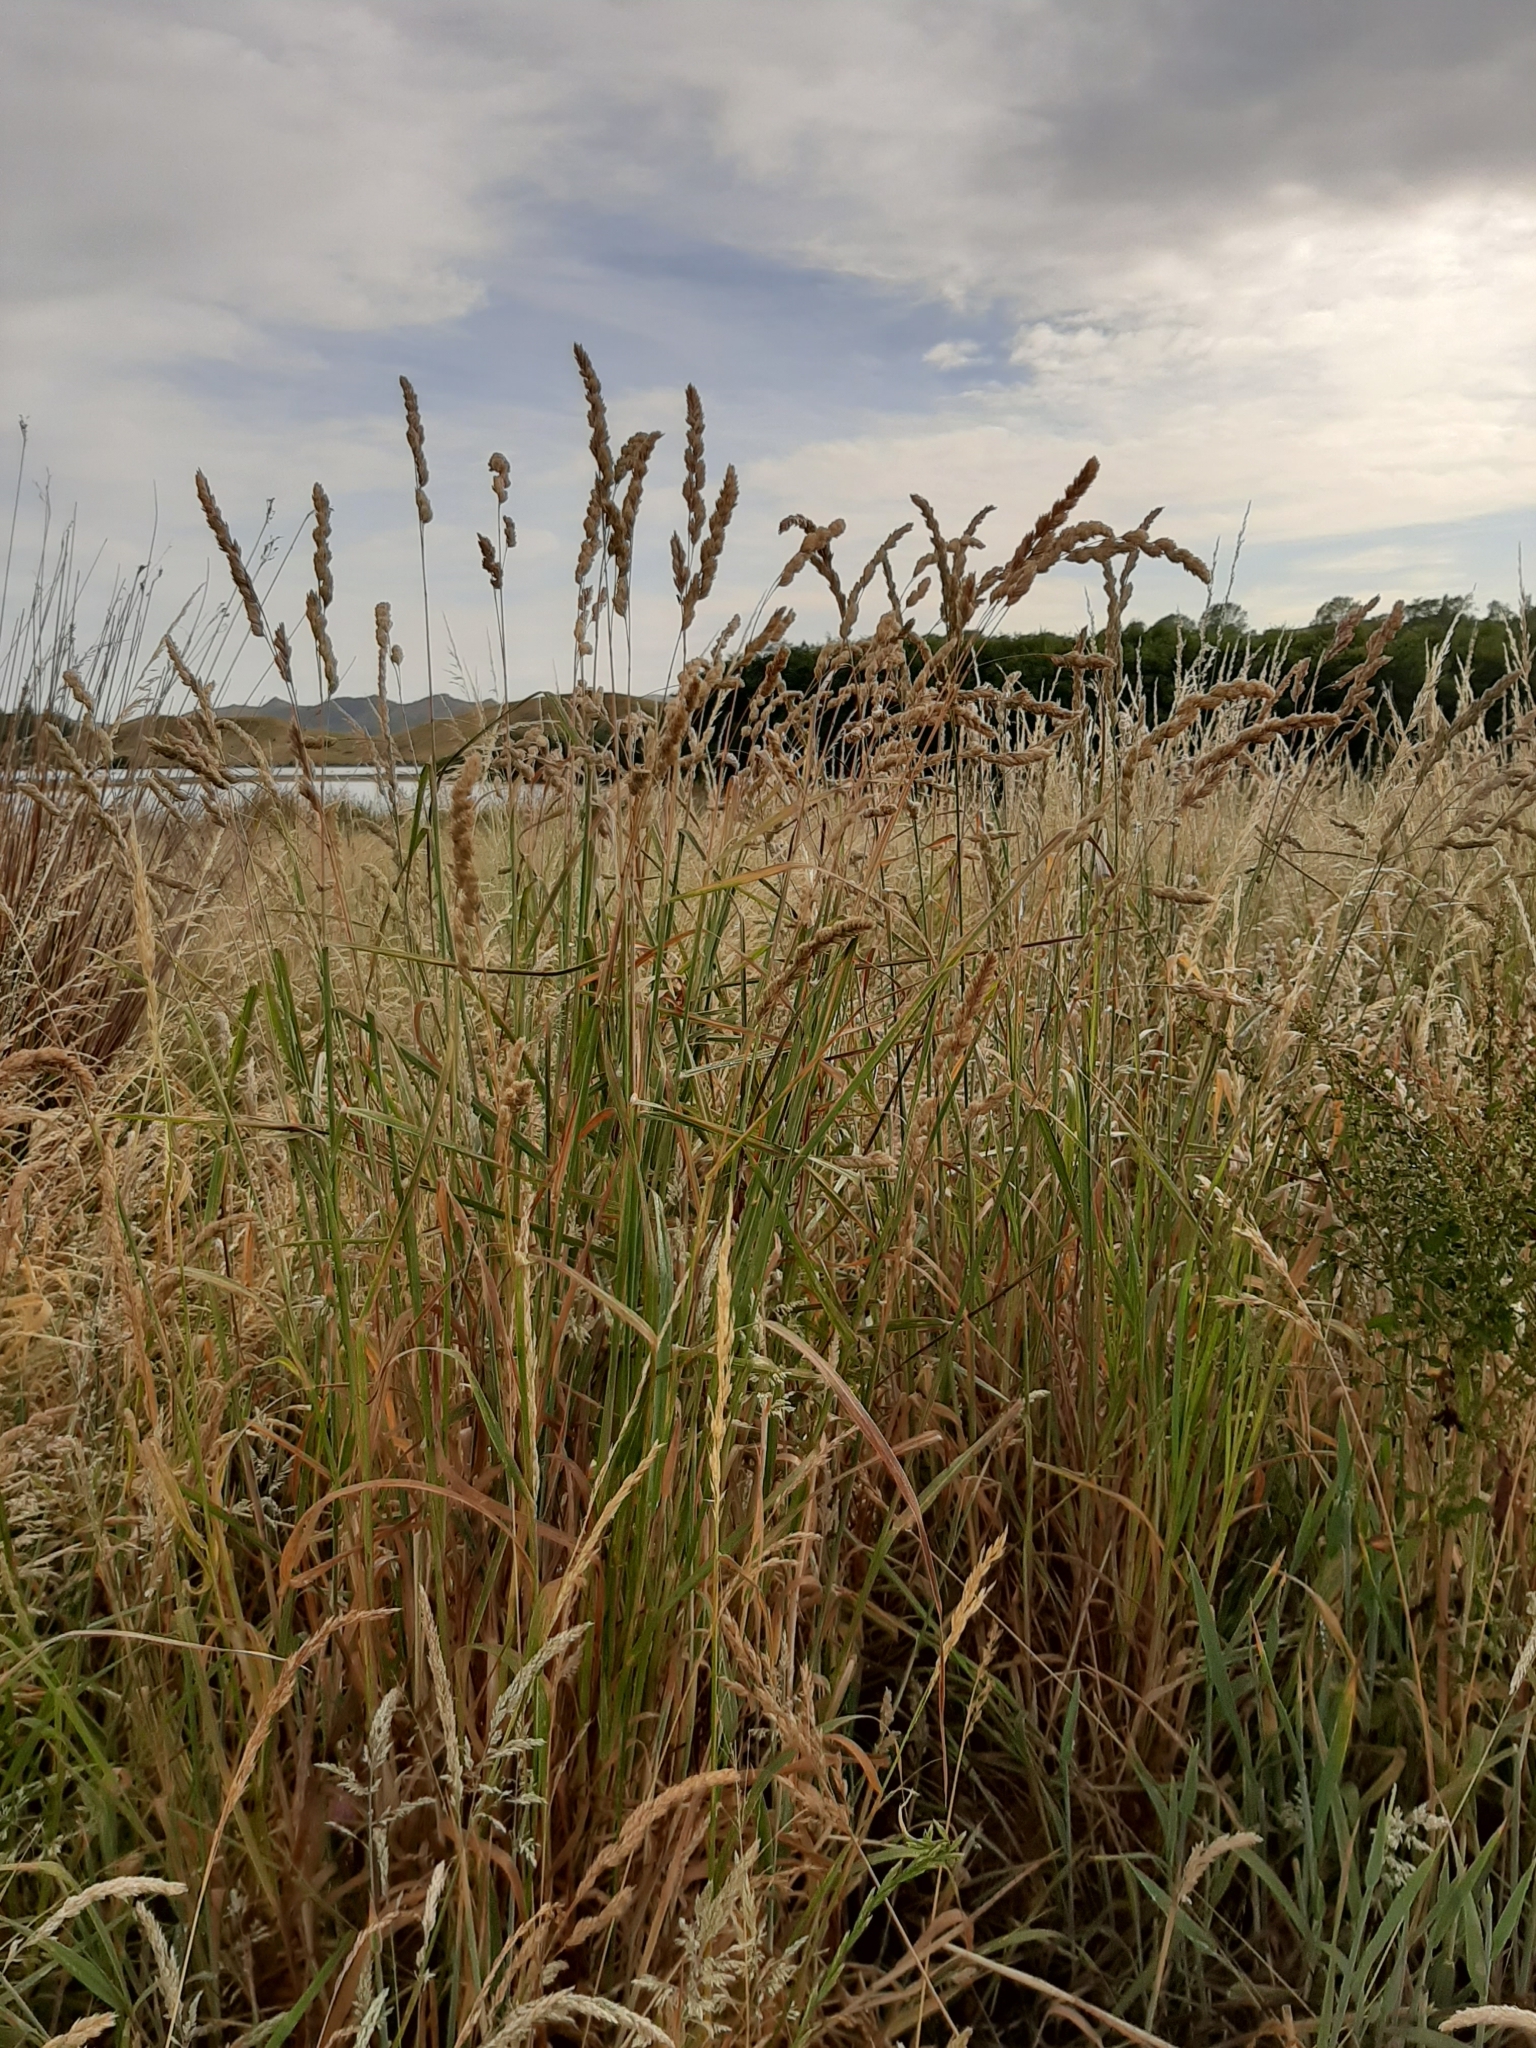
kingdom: Plantae
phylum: Tracheophyta
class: Liliopsida
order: Poales
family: Poaceae
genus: Dactylis
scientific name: Dactylis glomerata
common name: Orchardgrass
